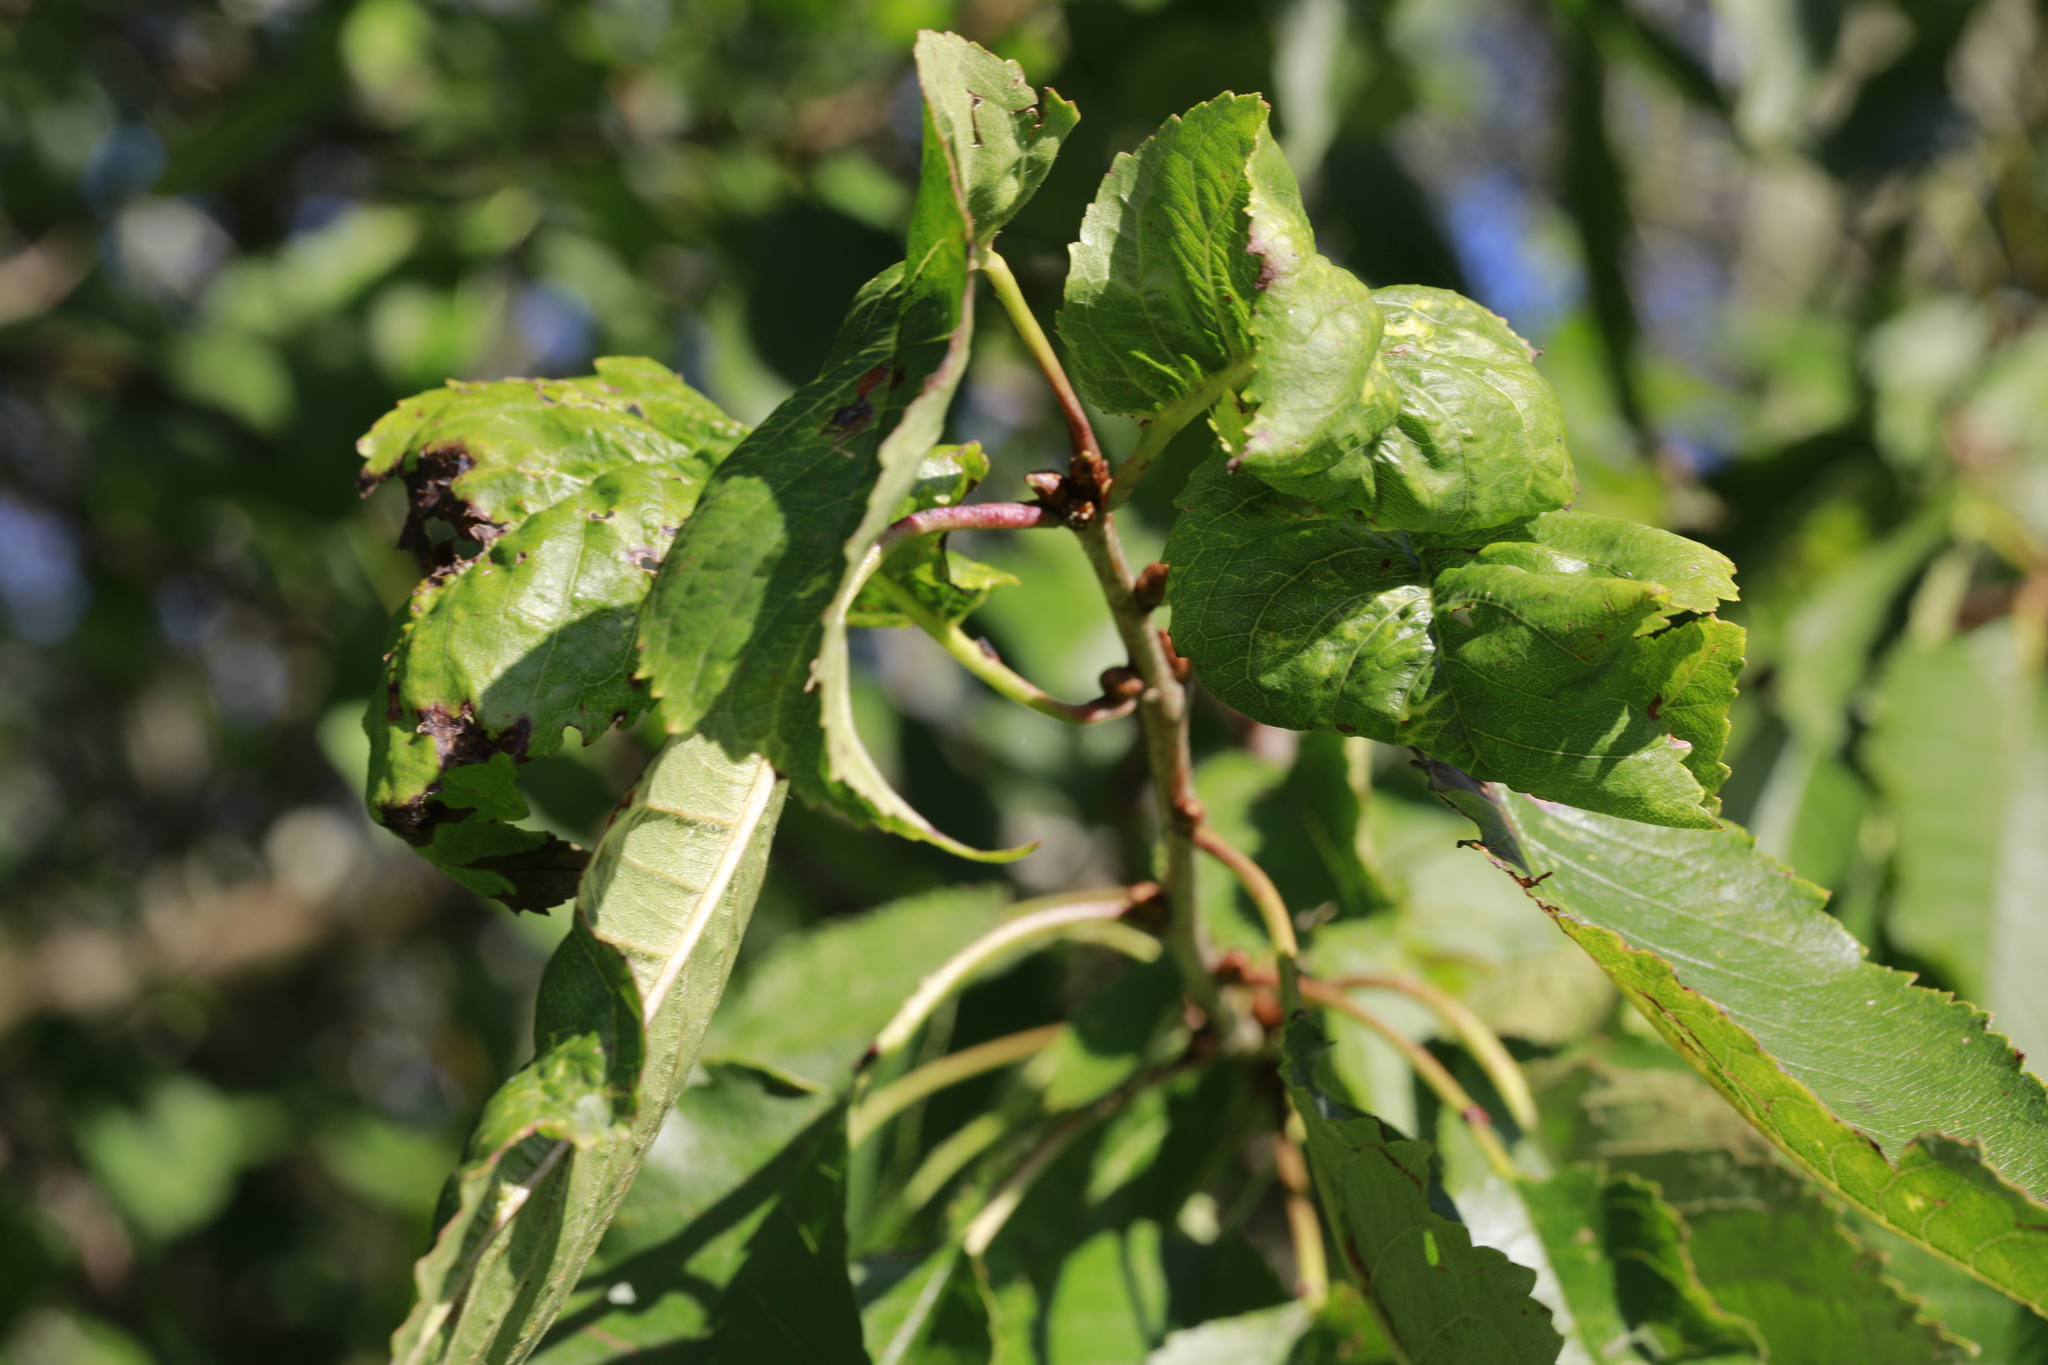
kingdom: Animalia
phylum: Arthropoda
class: Insecta
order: Hemiptera
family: Aphididae
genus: Myzus
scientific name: Myzus cerasi
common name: Black cherry aphid
